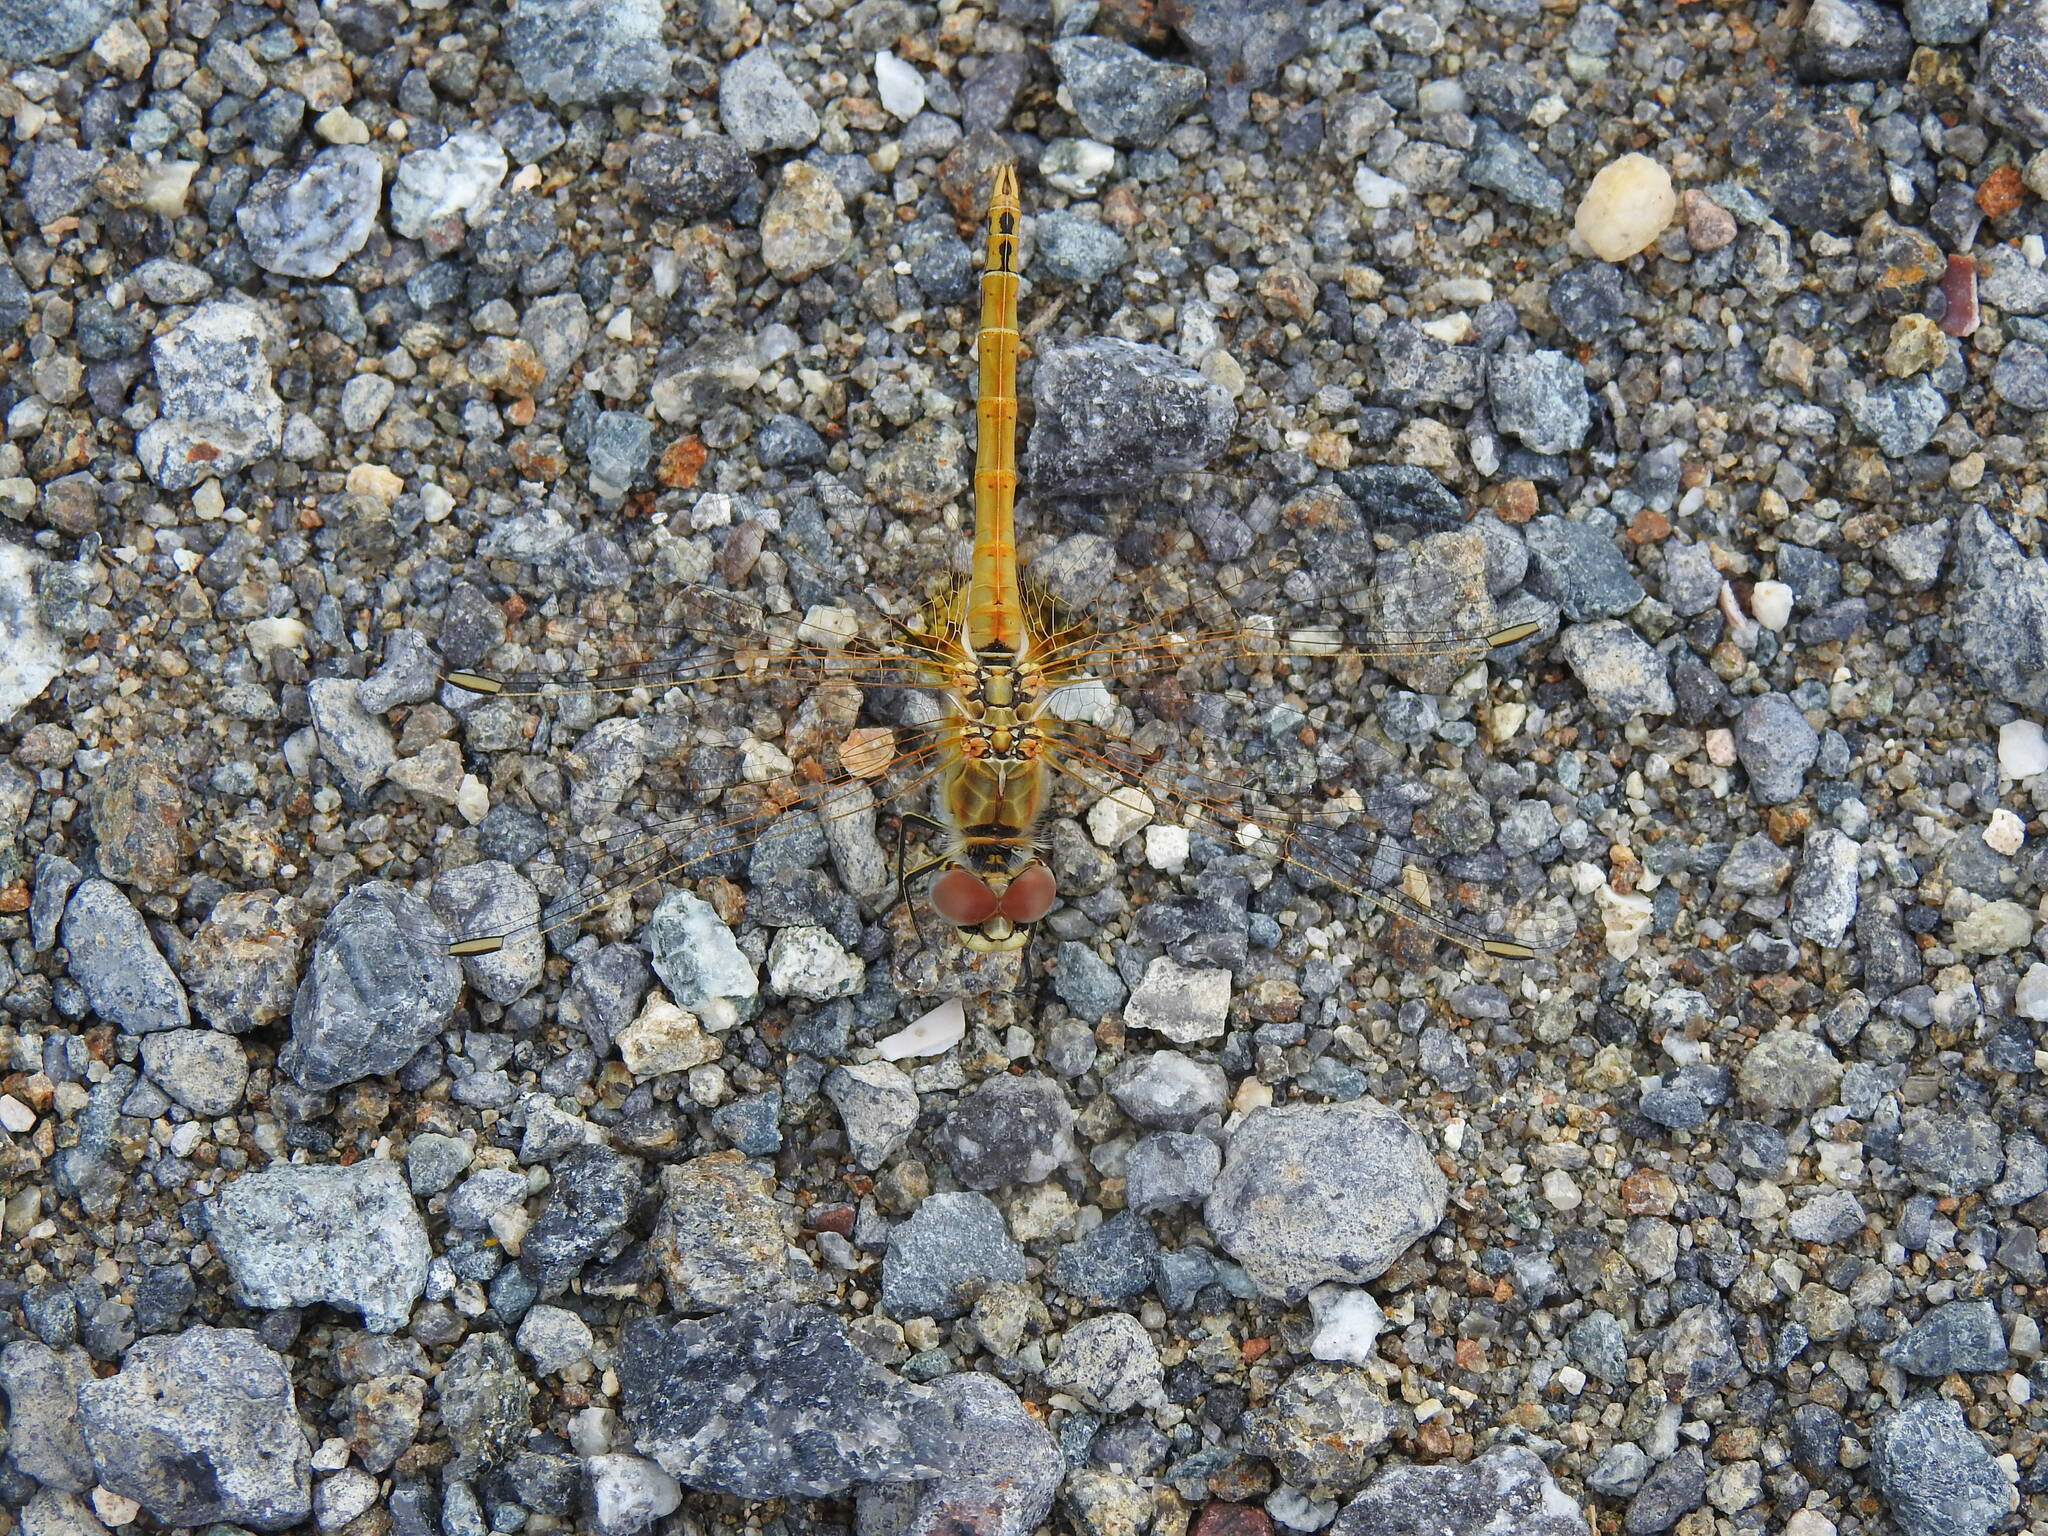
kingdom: Animalia
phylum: Arthropoda
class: Insecta
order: Odonata
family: Libellulidae
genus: Sympetrum
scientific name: Sympetrum fonscolombii
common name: Red-veined darter
